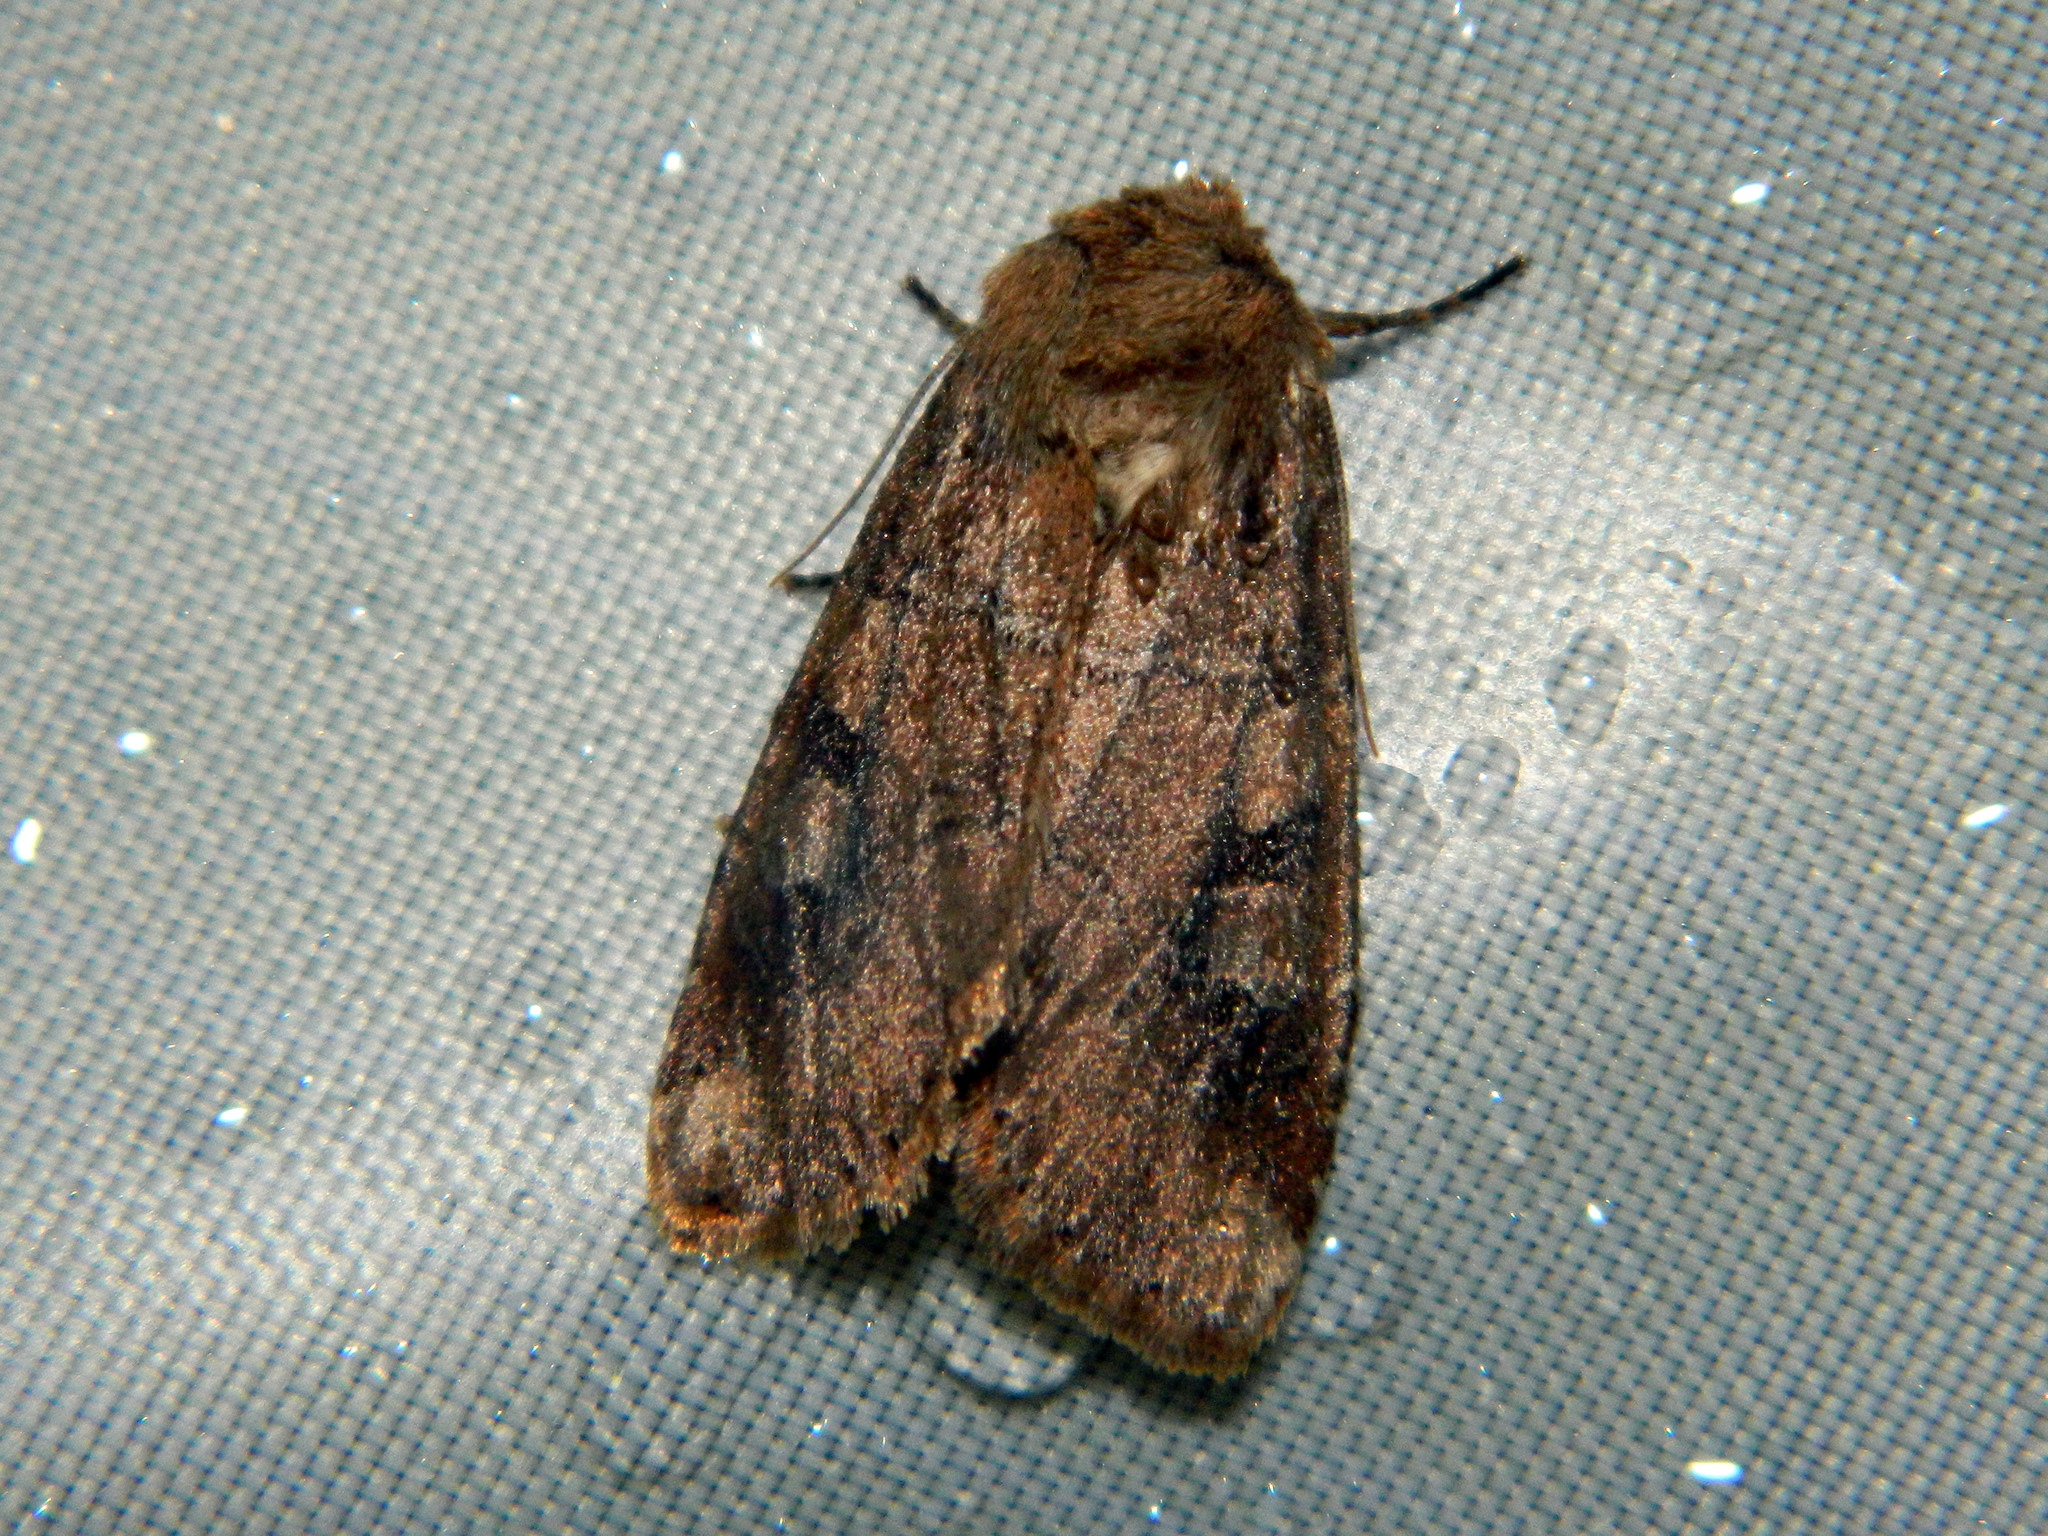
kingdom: Animalia
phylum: Arthropoda
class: Insecta
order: Lepidoptera
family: Noctuidae
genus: Crocigrapha
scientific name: Crocigrapha normani
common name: Norman's quaker
